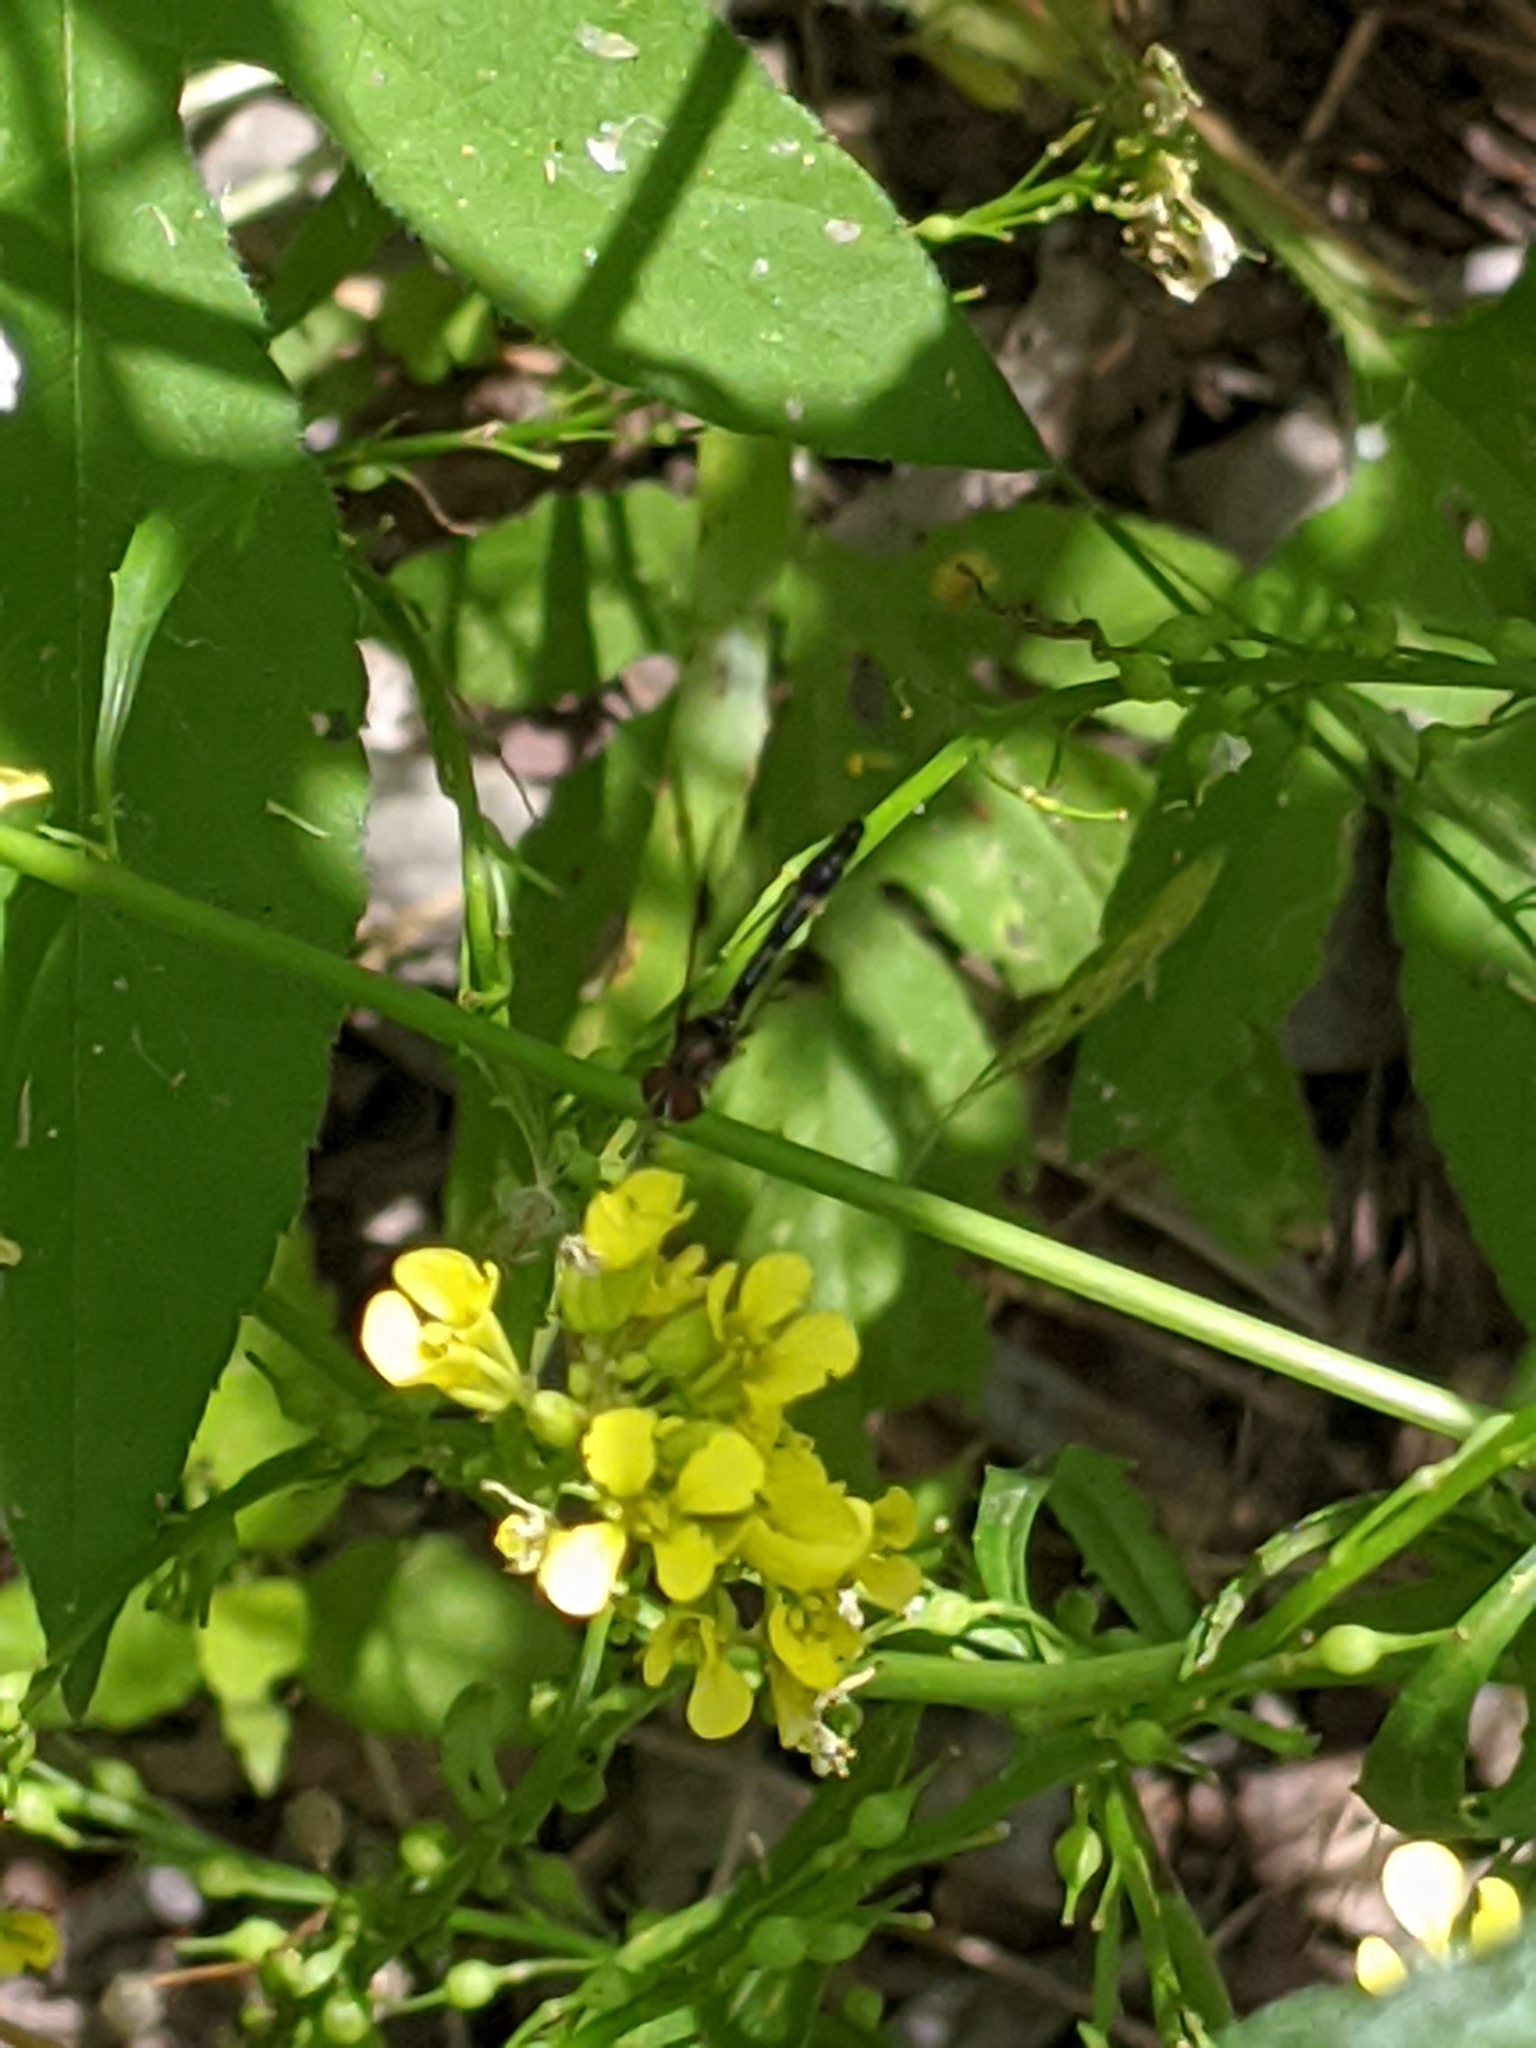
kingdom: Animalia
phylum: Arthropoda
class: Insecta
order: Diptera
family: Syrphidae
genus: Hypocritanus
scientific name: Hypocritanus fascipennis
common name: Eastern band-winged hover fly
